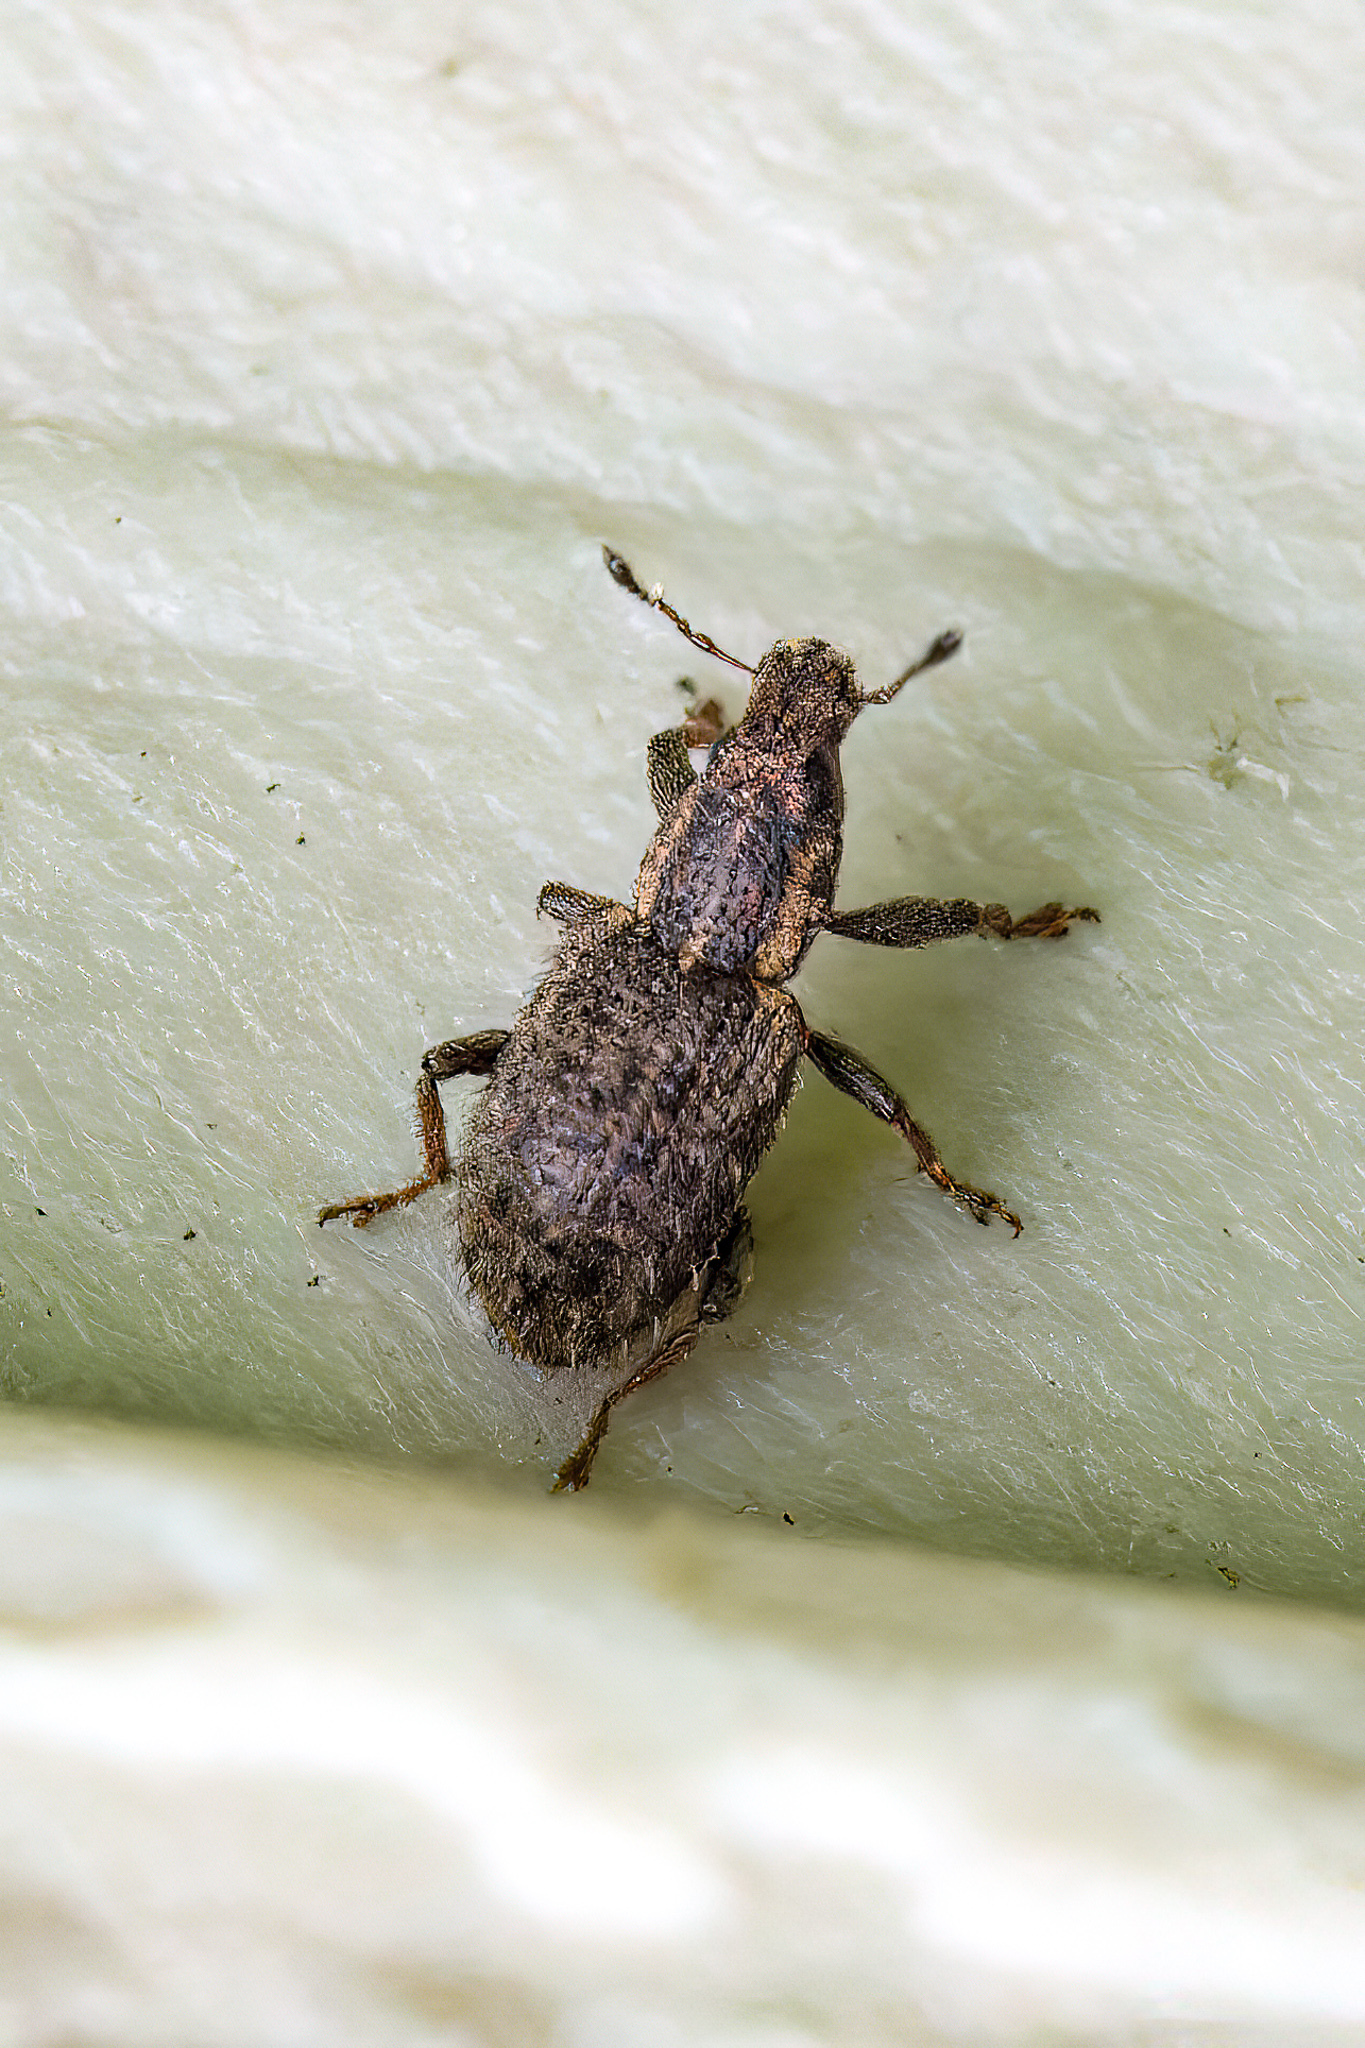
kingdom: Animalia
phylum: Arthropoda
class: Insecta
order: Coleoptera
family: Curculionidae
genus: Sitona
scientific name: Sitona hispidulus
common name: Clover weevil
